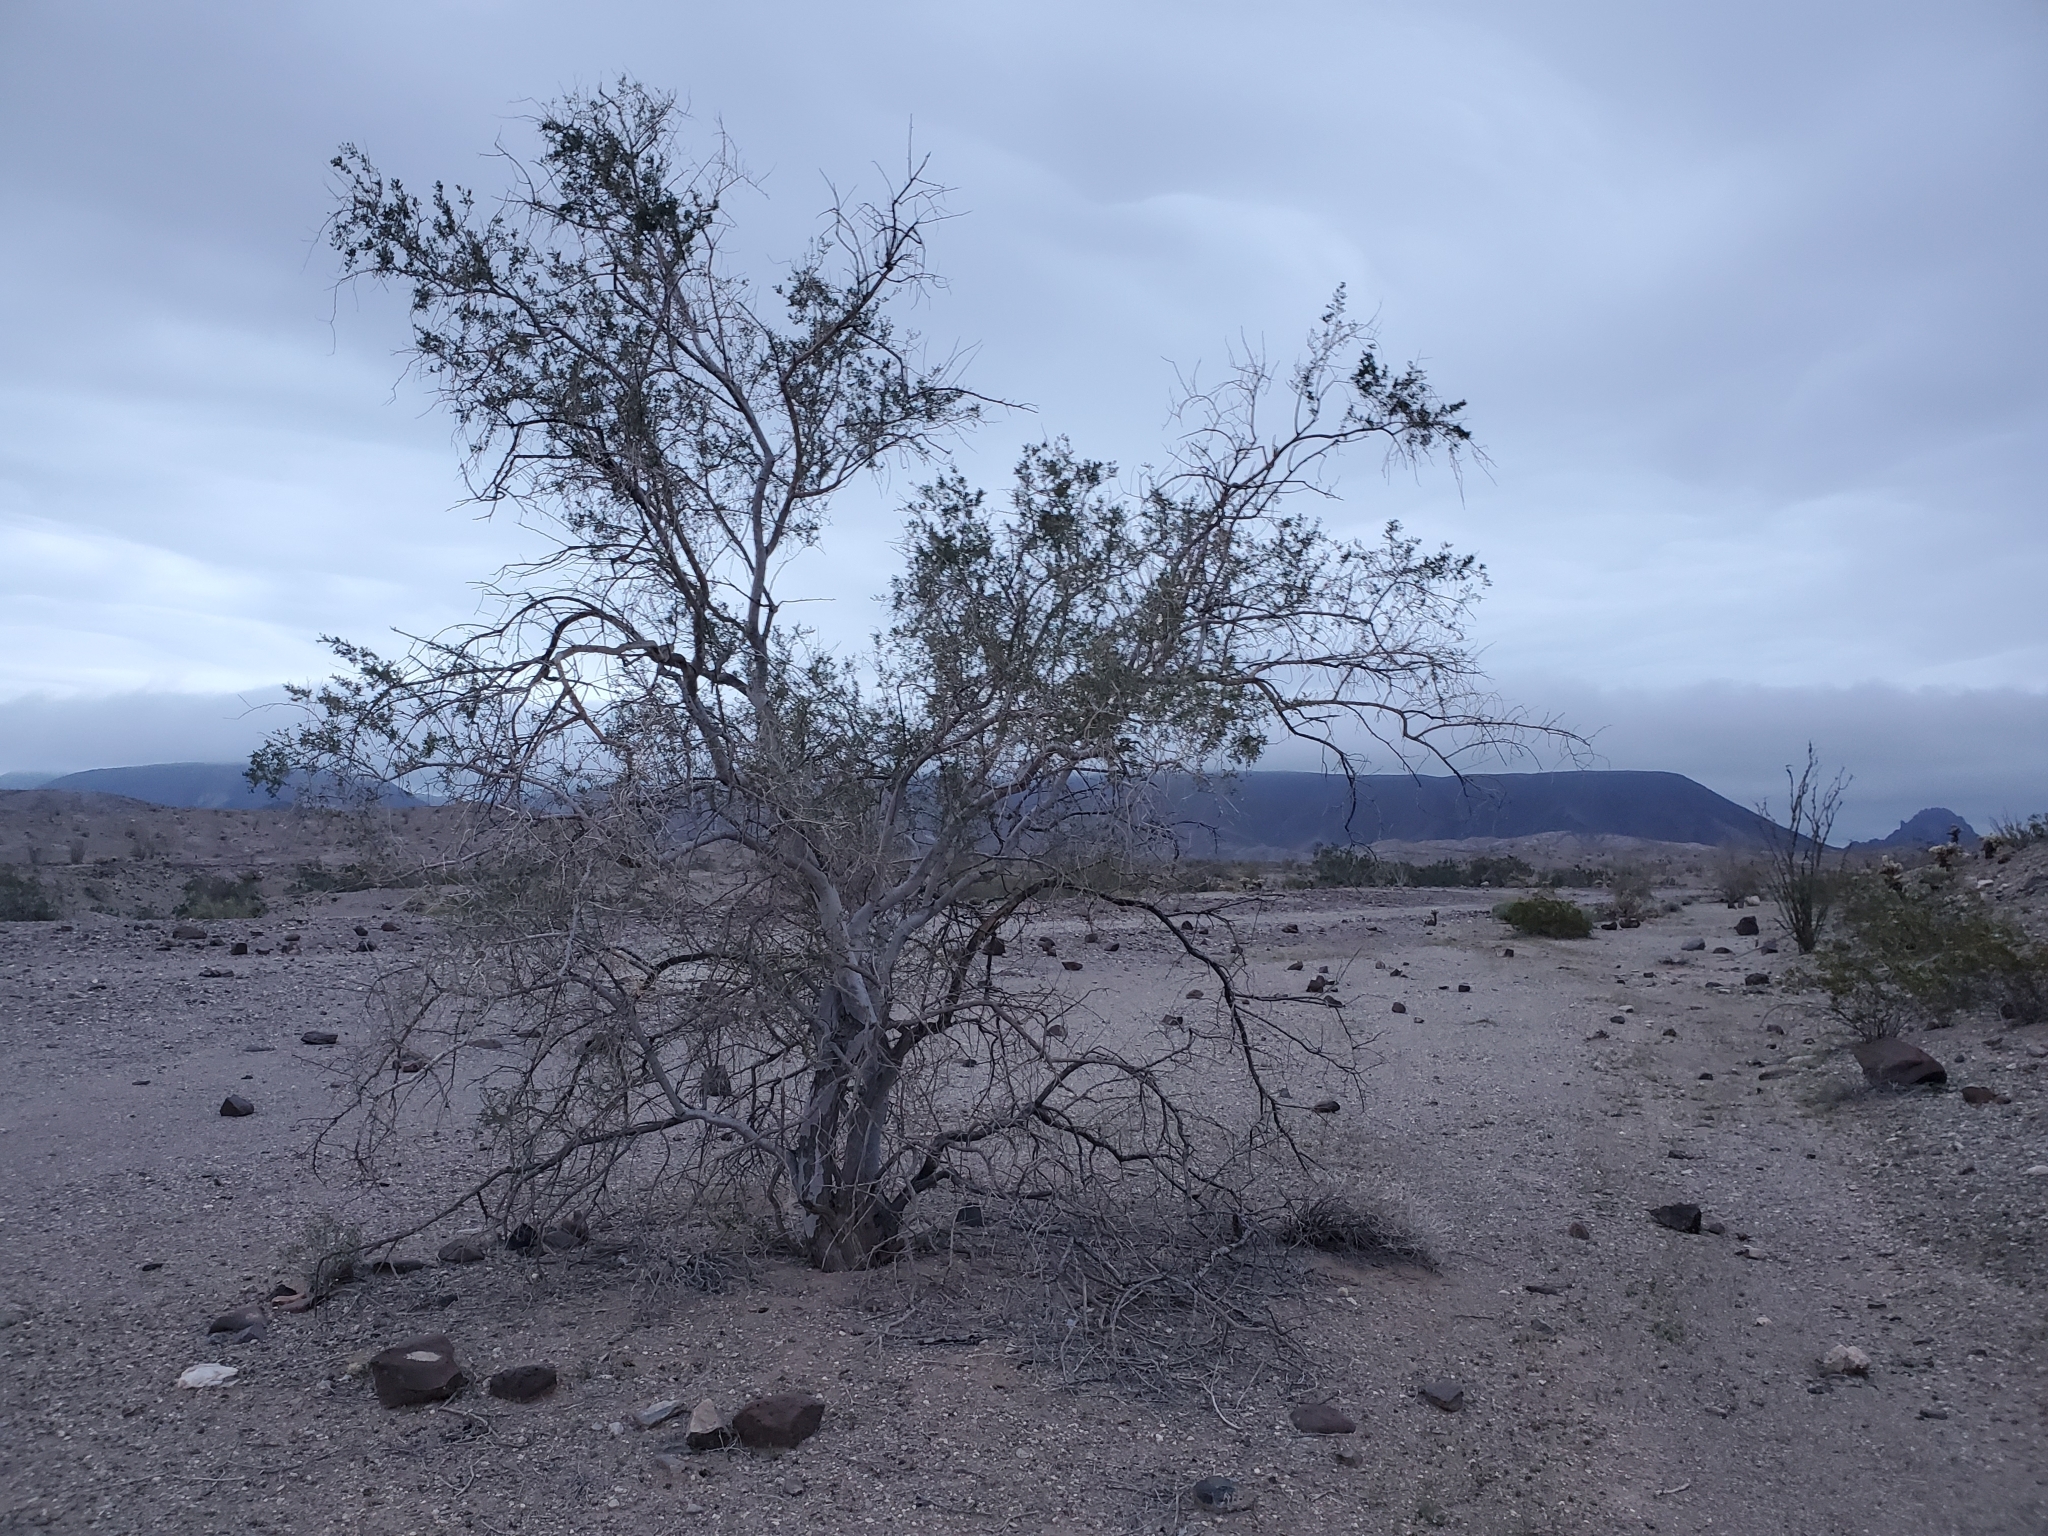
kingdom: Plantae
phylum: Tracheophyta
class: Magnoliopsida
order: Fabales
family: Fabaceae
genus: Olneya
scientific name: Olneya tesota
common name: Desert ironwood
